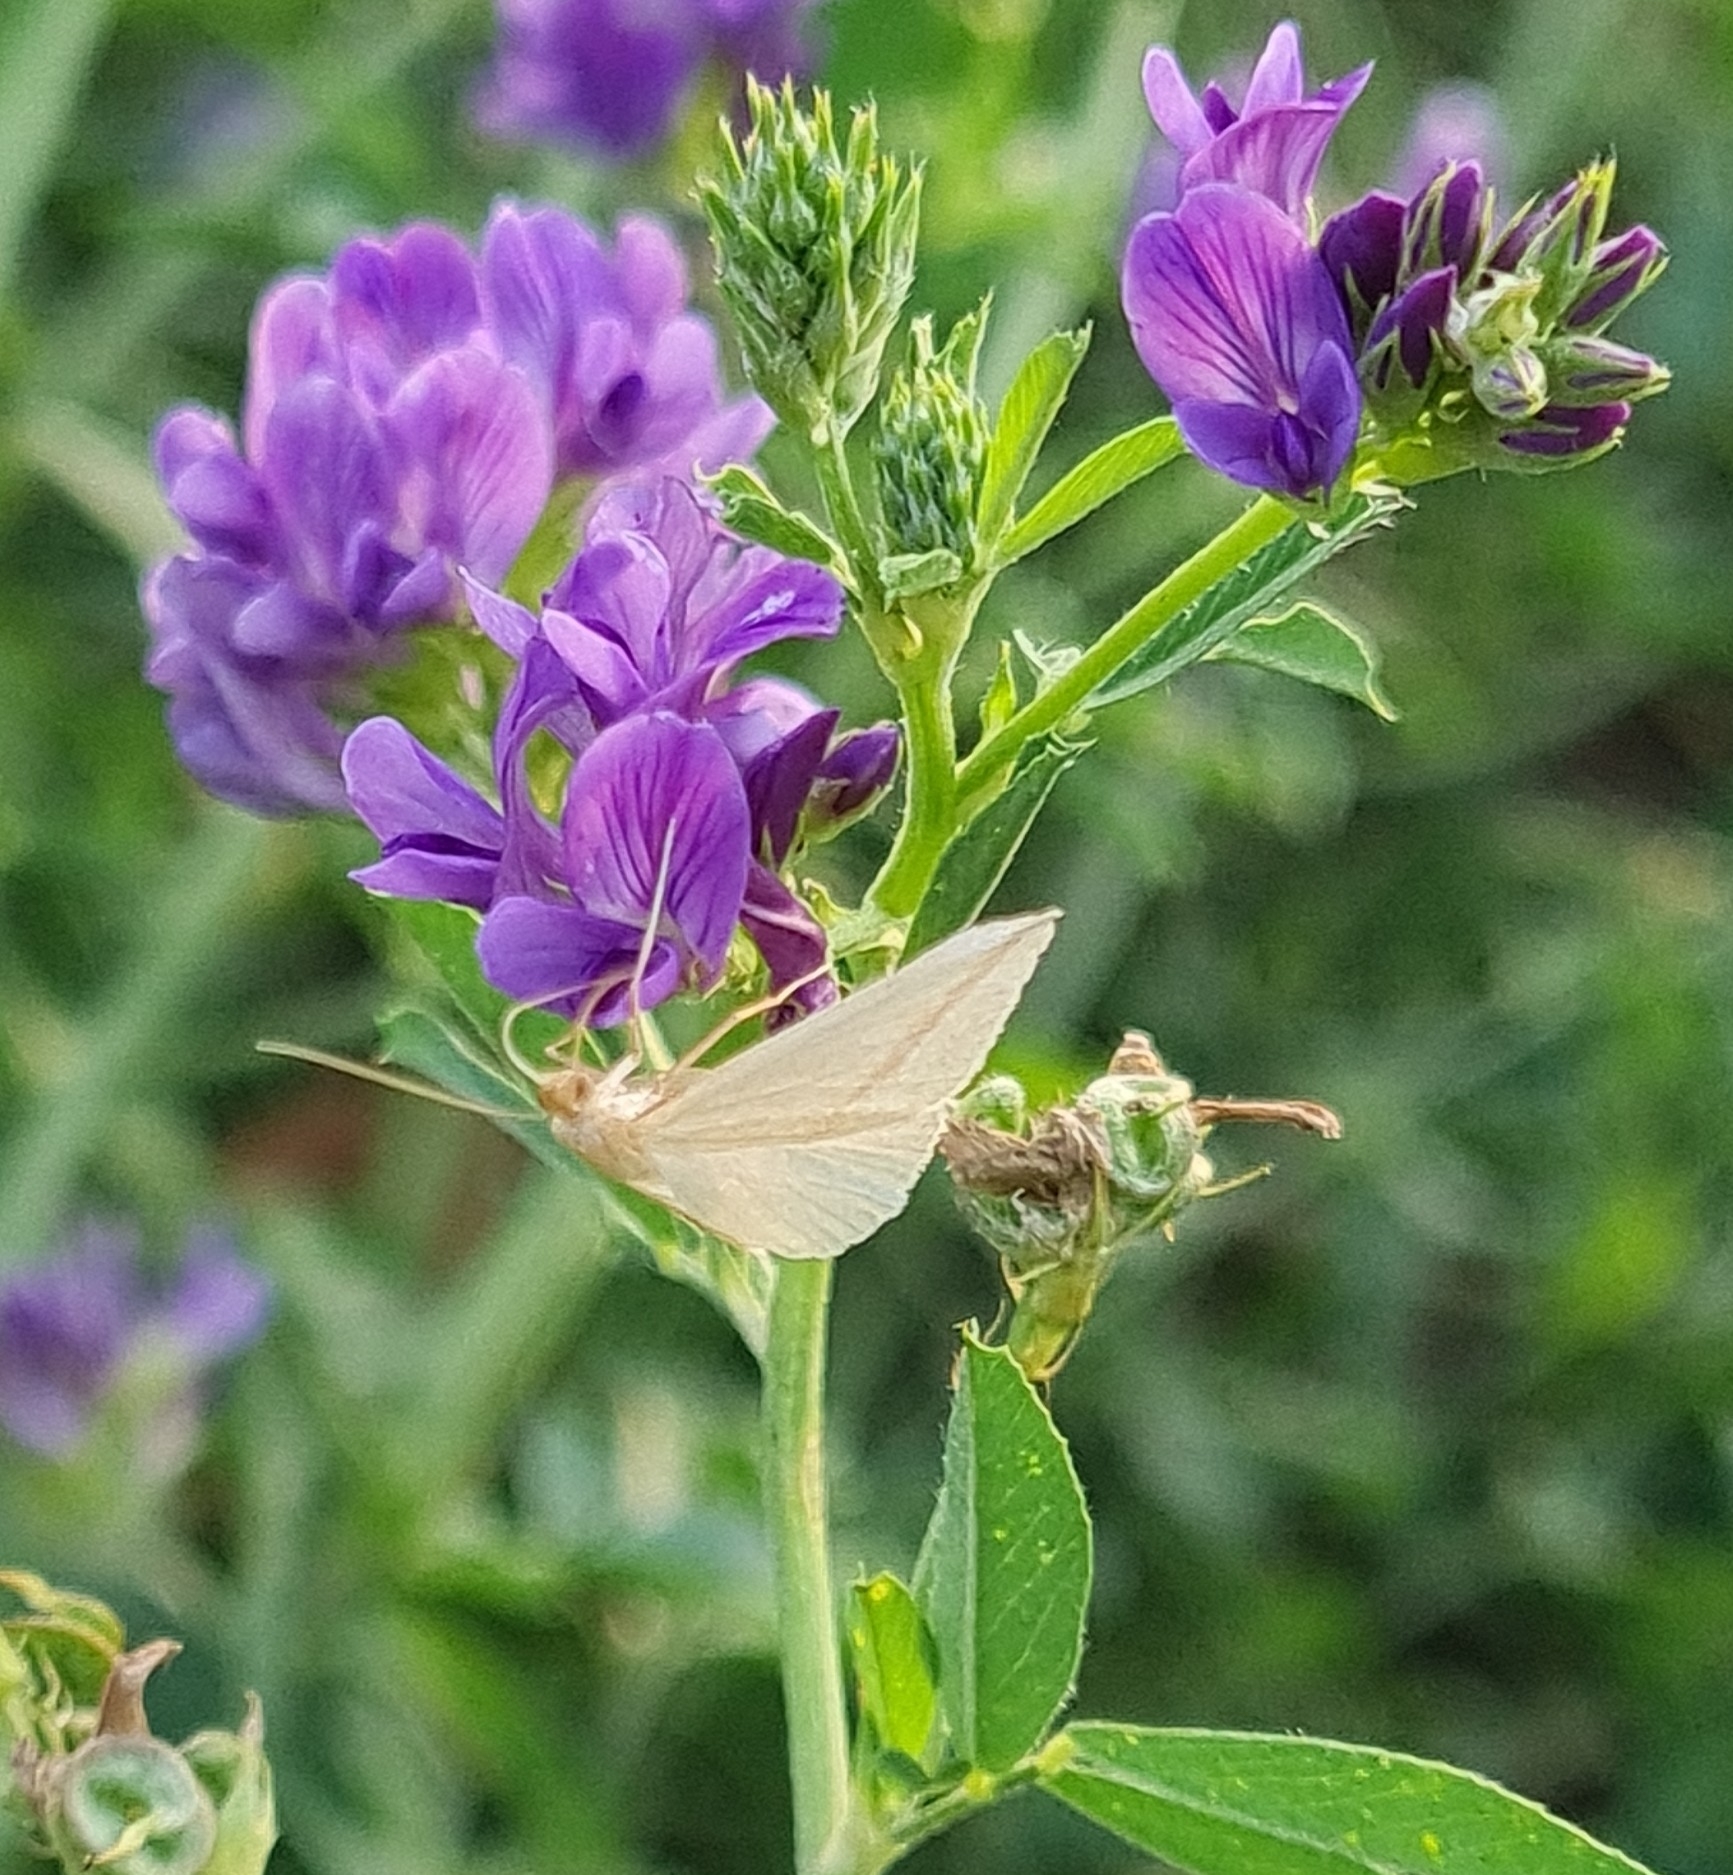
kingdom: Animalia
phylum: Arthropoda
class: Insecta
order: Lepidoptera
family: Geometridae
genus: Rhodometra
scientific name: Rhodometra sacraria
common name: Vestal
